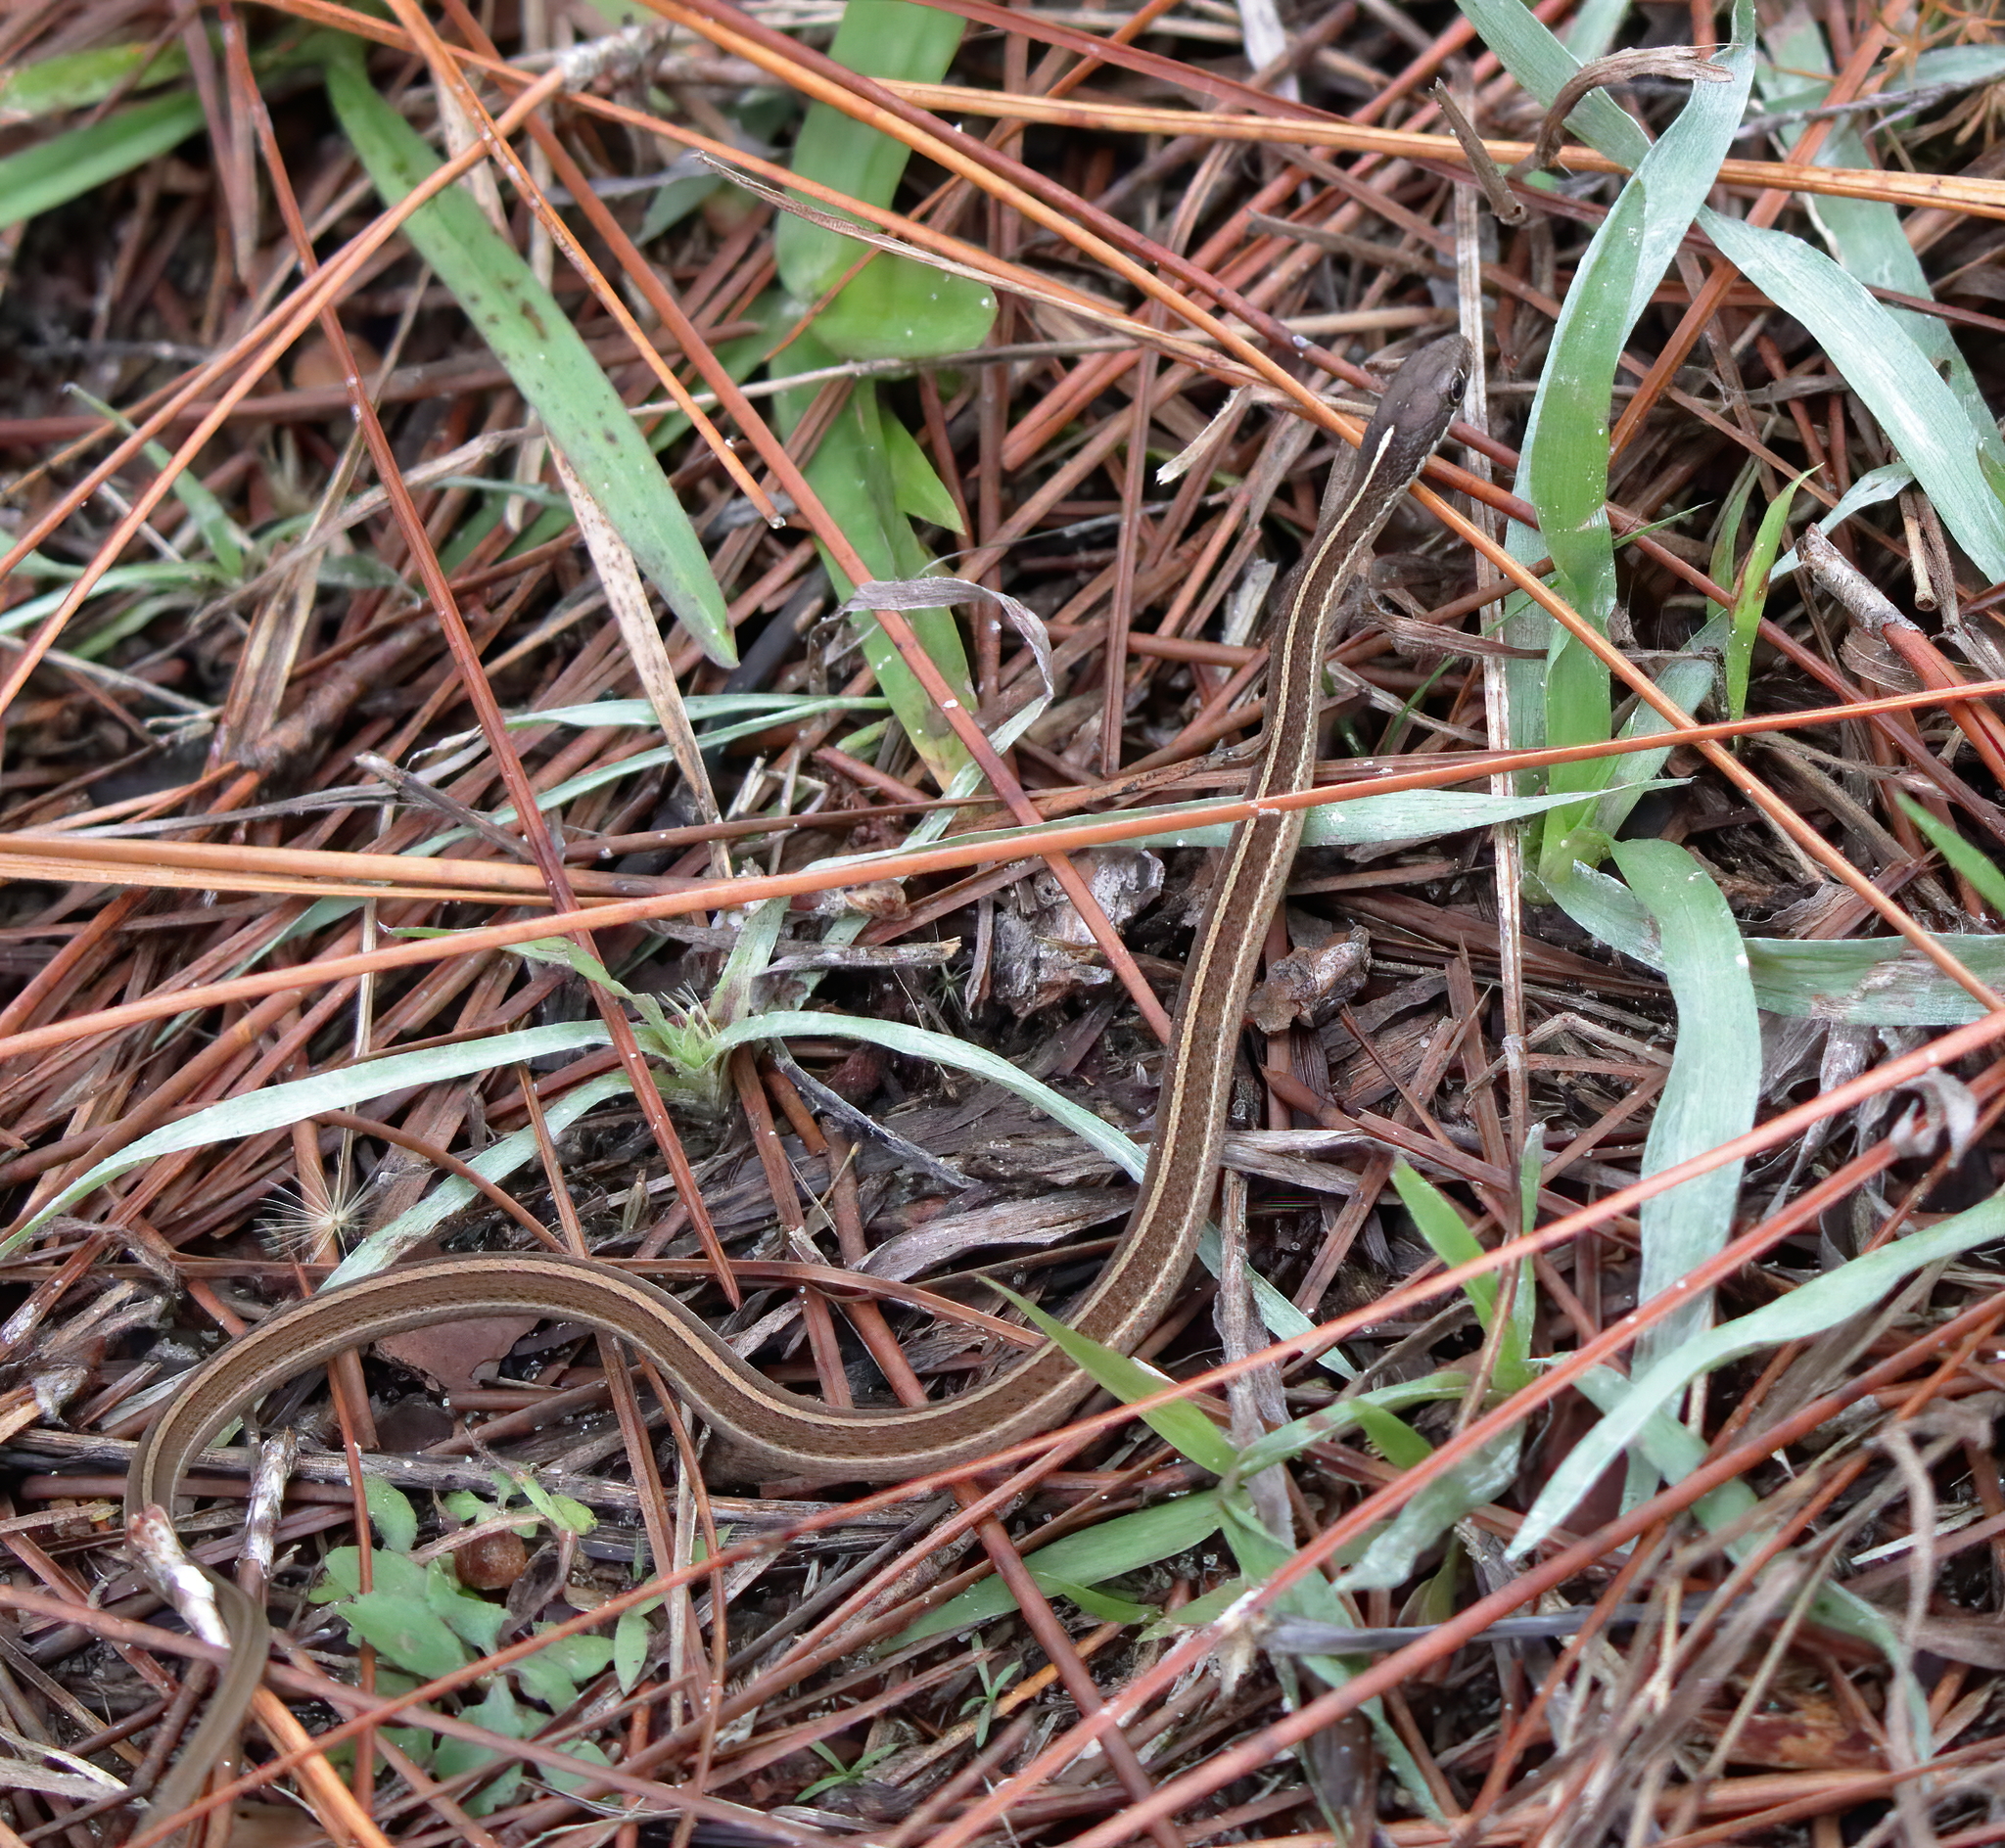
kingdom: Animalia
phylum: Chordata
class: Squamata
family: Colubridae
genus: Thamnophis
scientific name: Thamnophis saurita
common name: Eastern ribbonsnake
